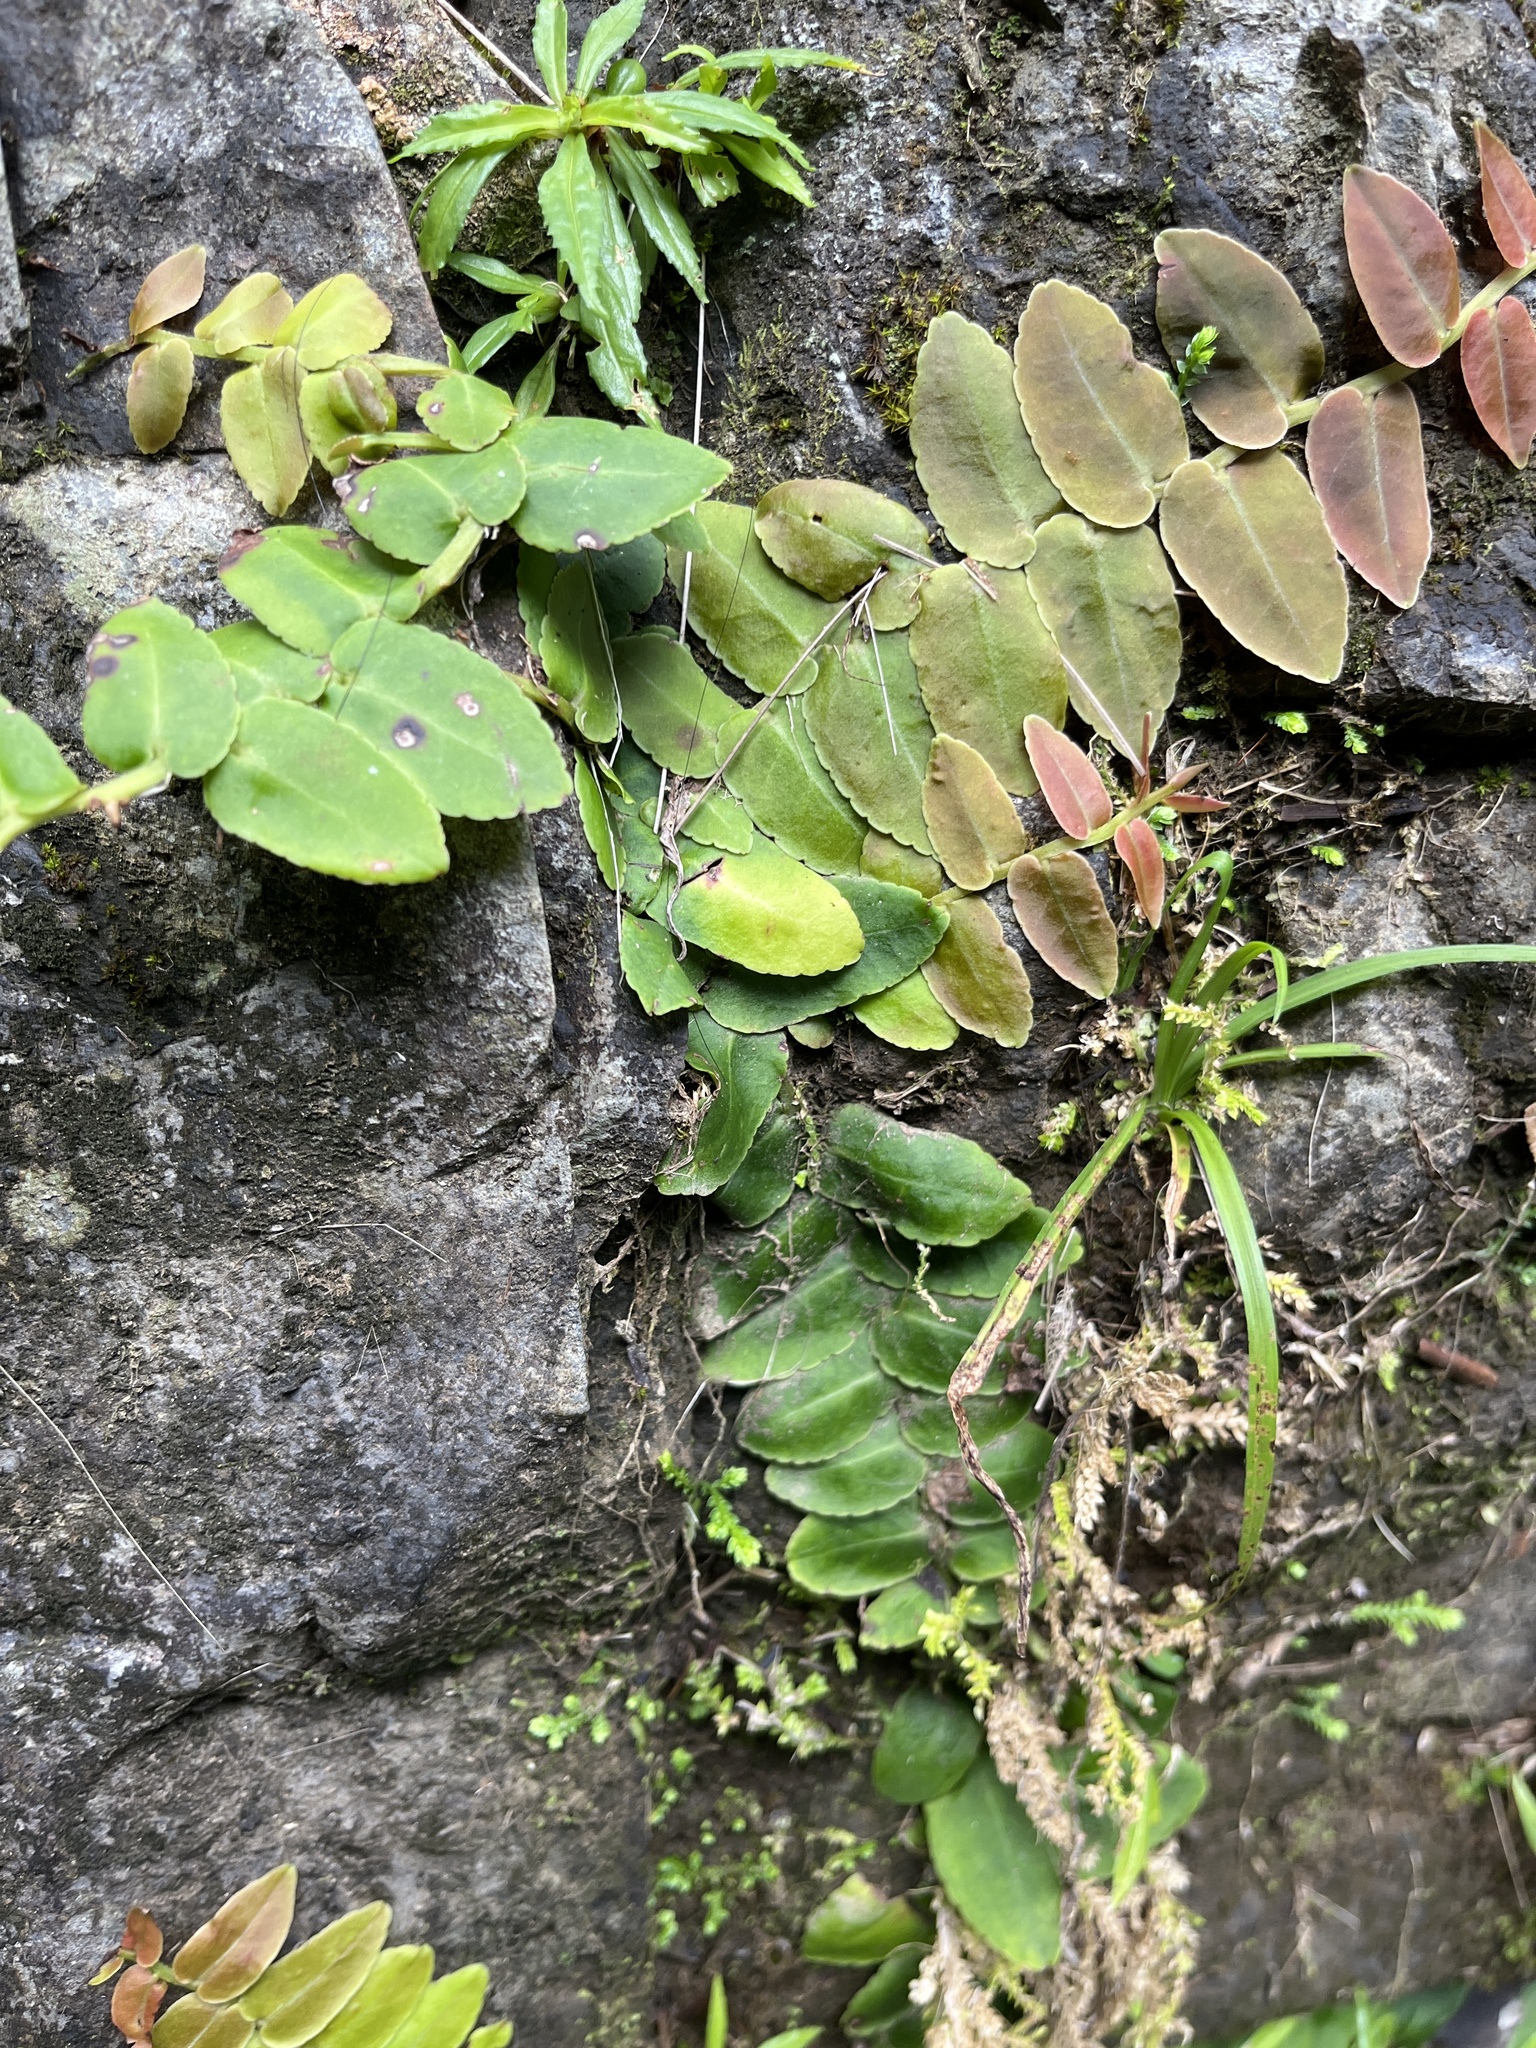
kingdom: Plantae
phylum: Tracheophyta
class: Magnoliopsida
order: Ericales
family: Marcgraviaceae
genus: Marcgravia
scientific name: Marcgravia rectiflora
